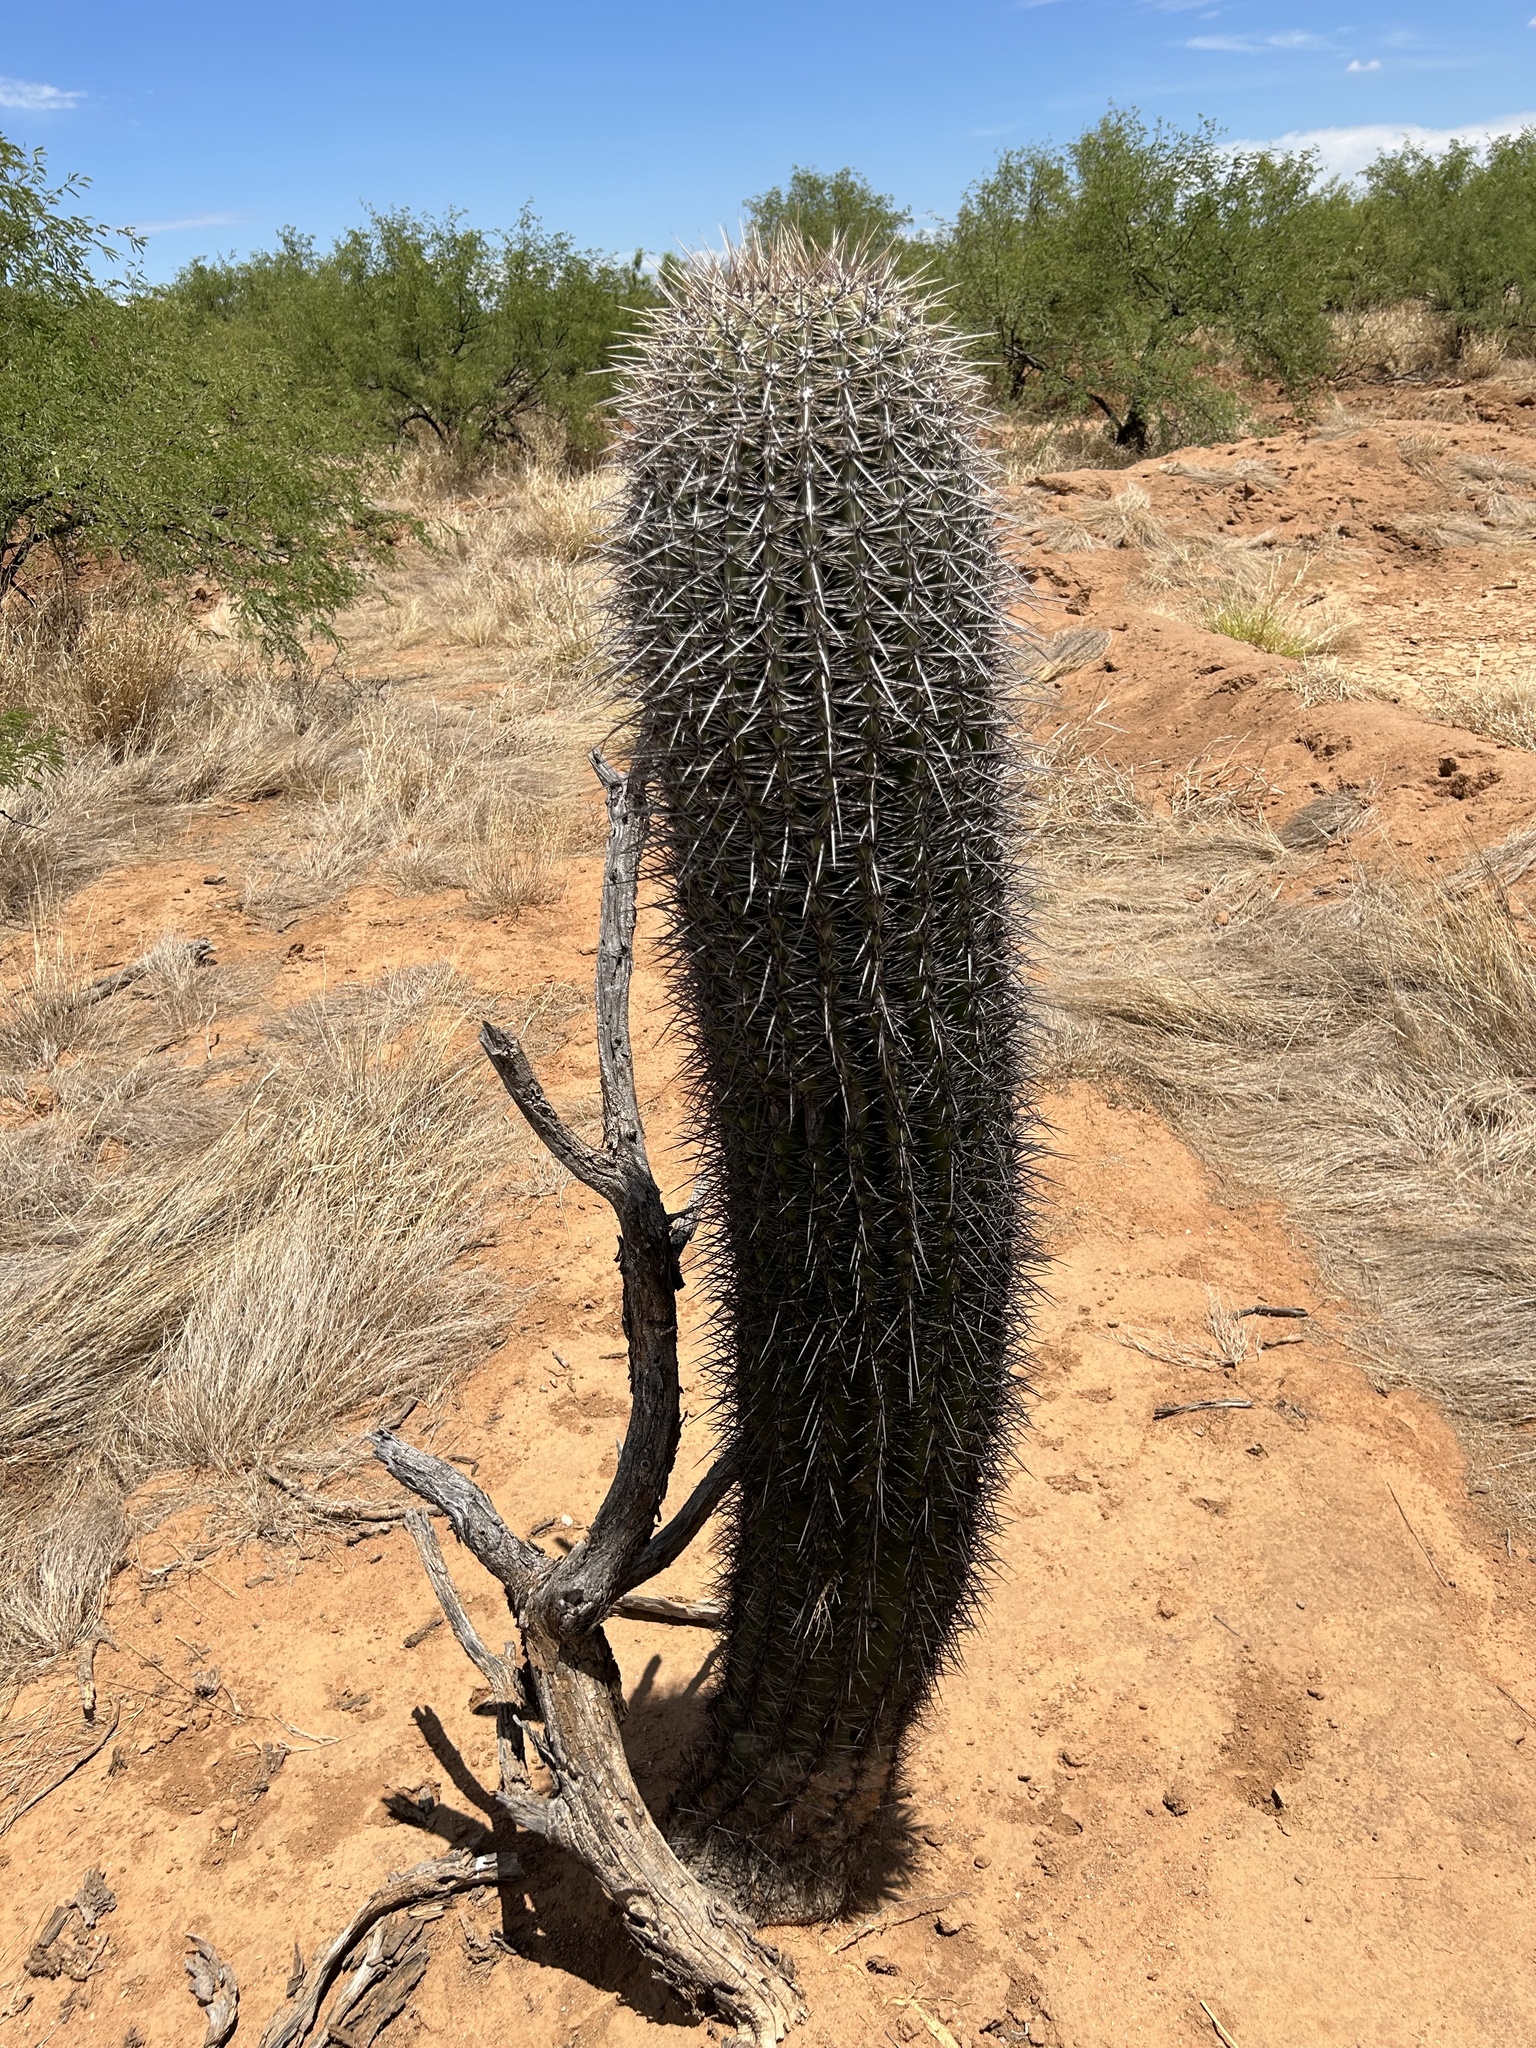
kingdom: Plantae
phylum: Tracheophyta
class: Magnoliopsida
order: Caryophyllales
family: Cactaceae
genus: Carnegiea
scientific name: Carnegiea gigantea
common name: Saguaro
